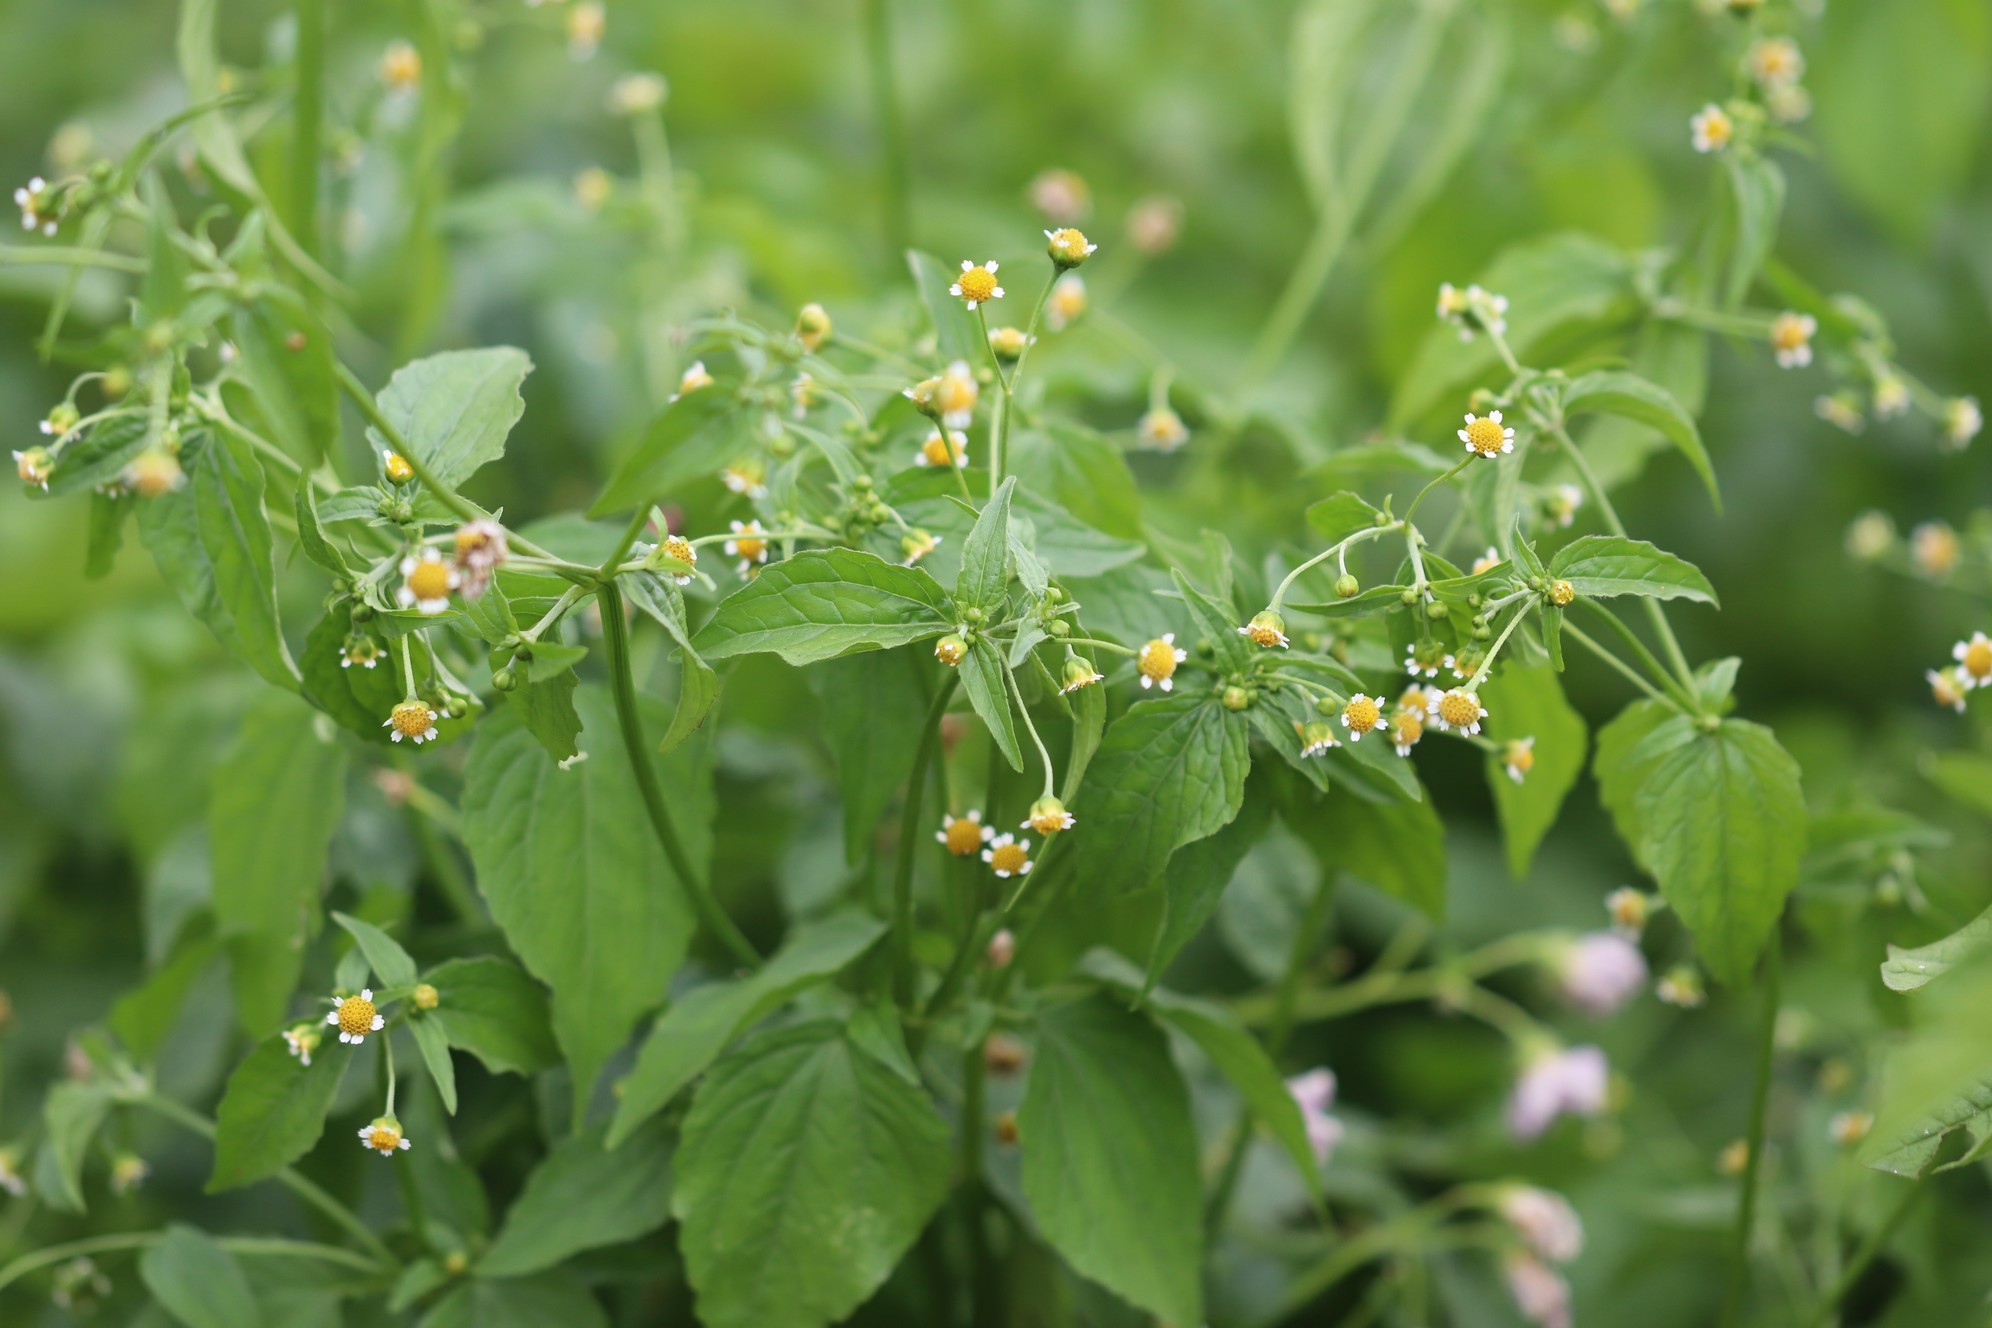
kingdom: Plantae
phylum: Tracheophyta
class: Magnoliopsida
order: Asterales
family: Asteraceae
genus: Galinsoga
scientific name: Galinsoga parviflora
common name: Gallant soldier
